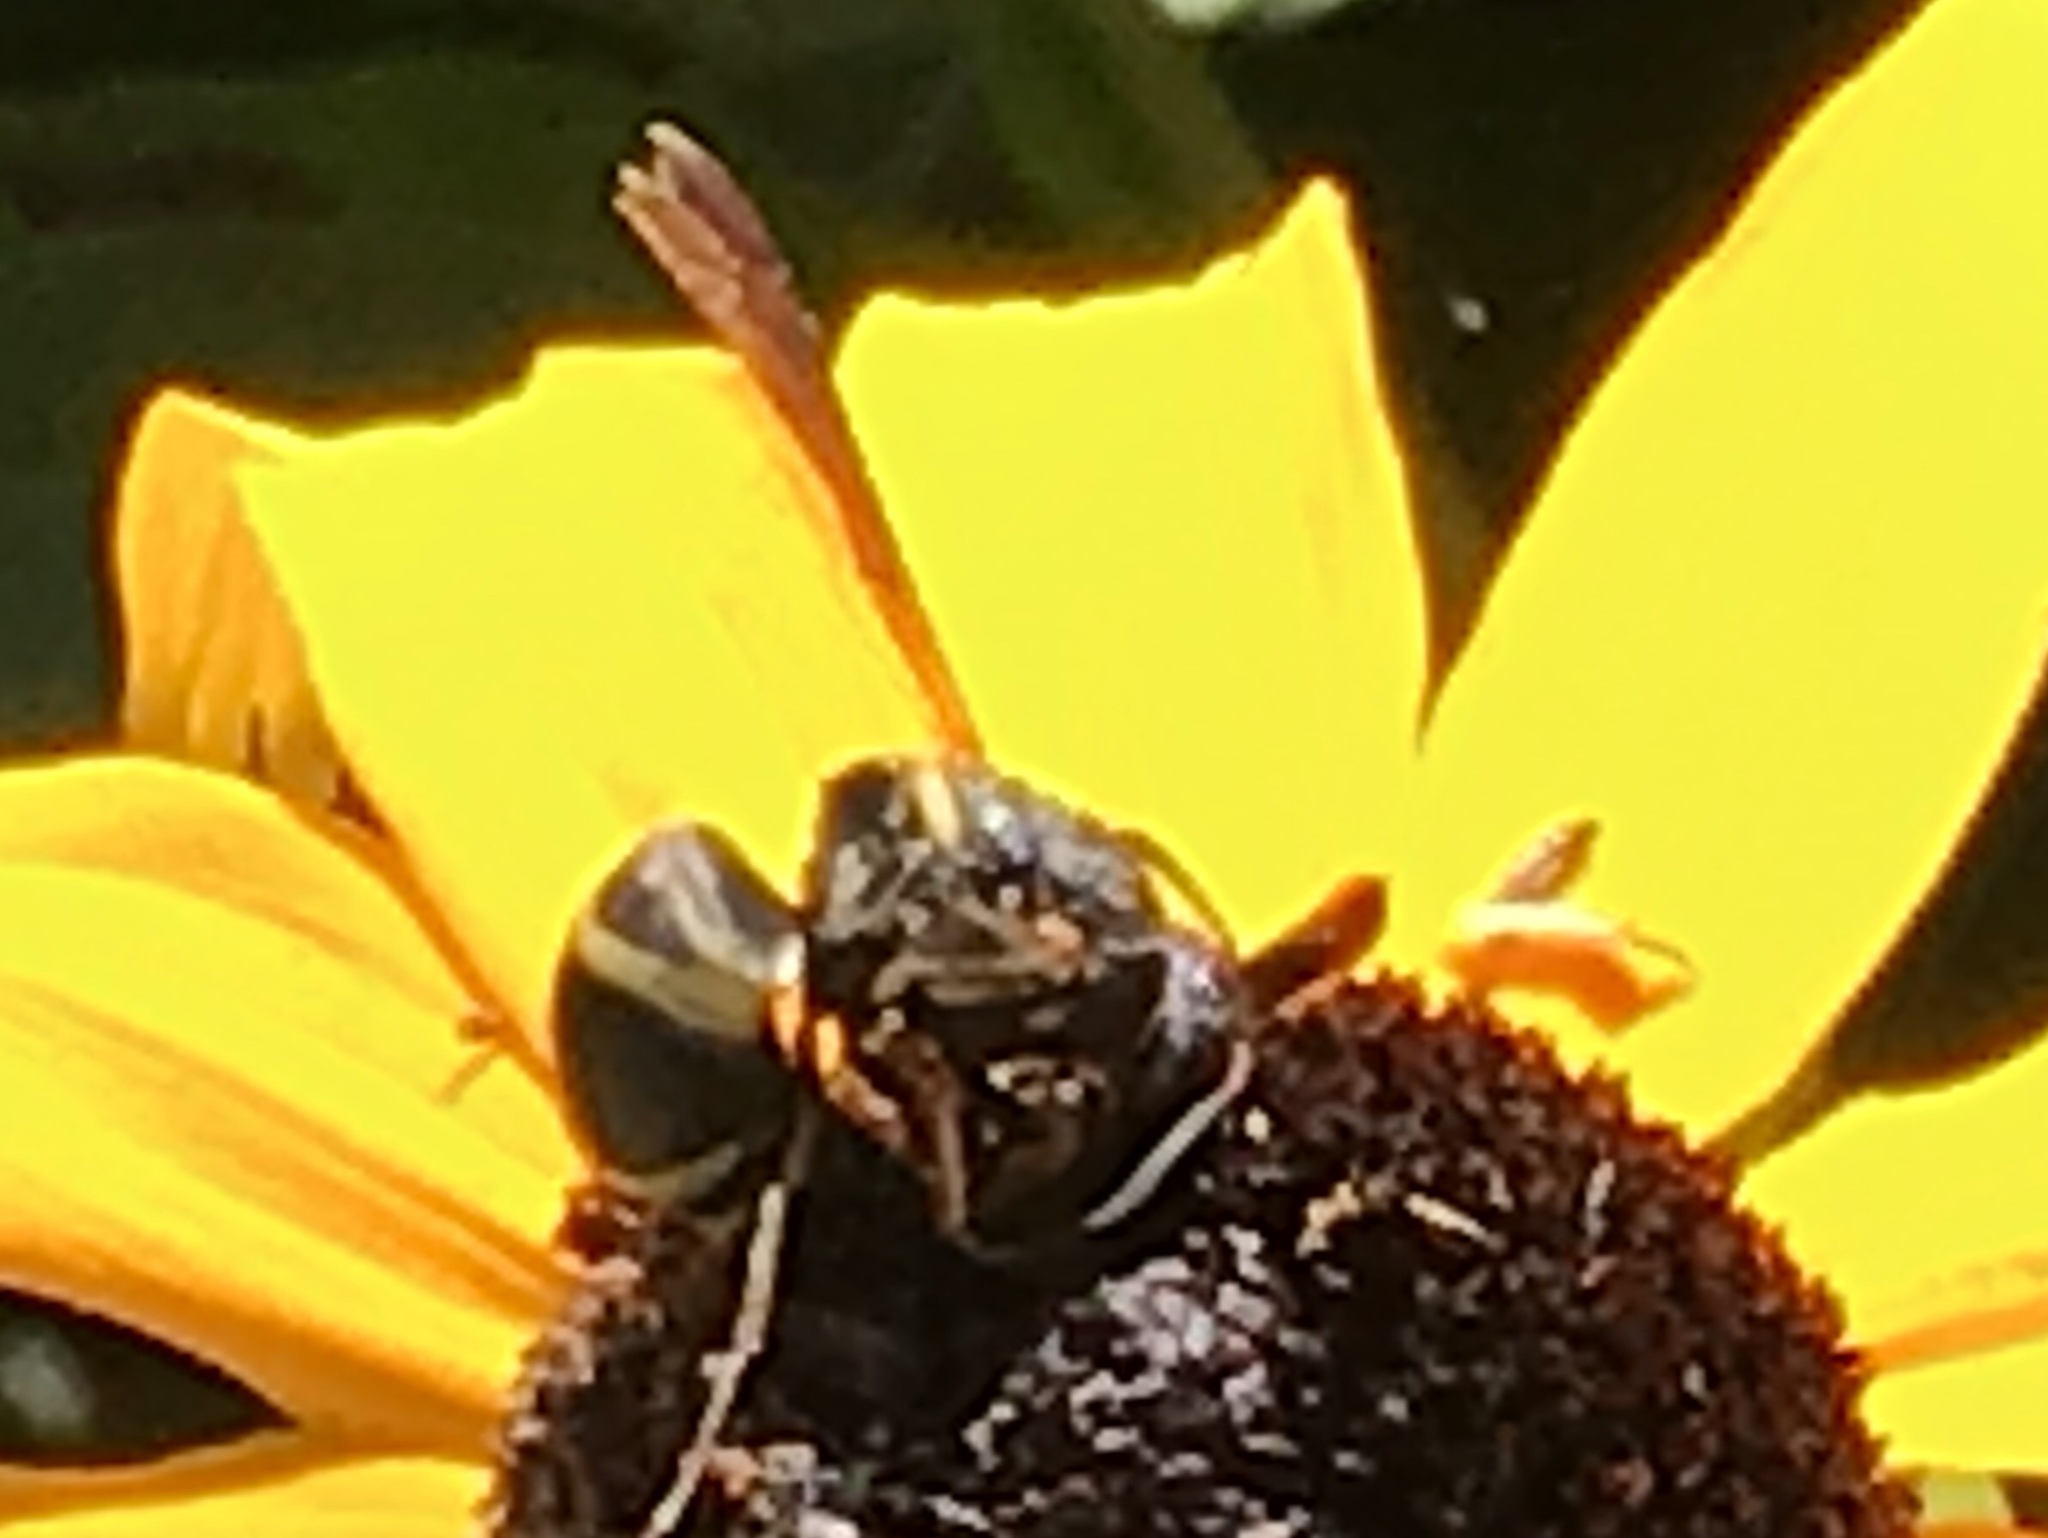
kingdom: Animalia
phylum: Arthropoda
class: Insecta
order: Hymenoptera
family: Eumenidae
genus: Euodynerus
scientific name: Euodynerus hidalgo
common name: Wasp
